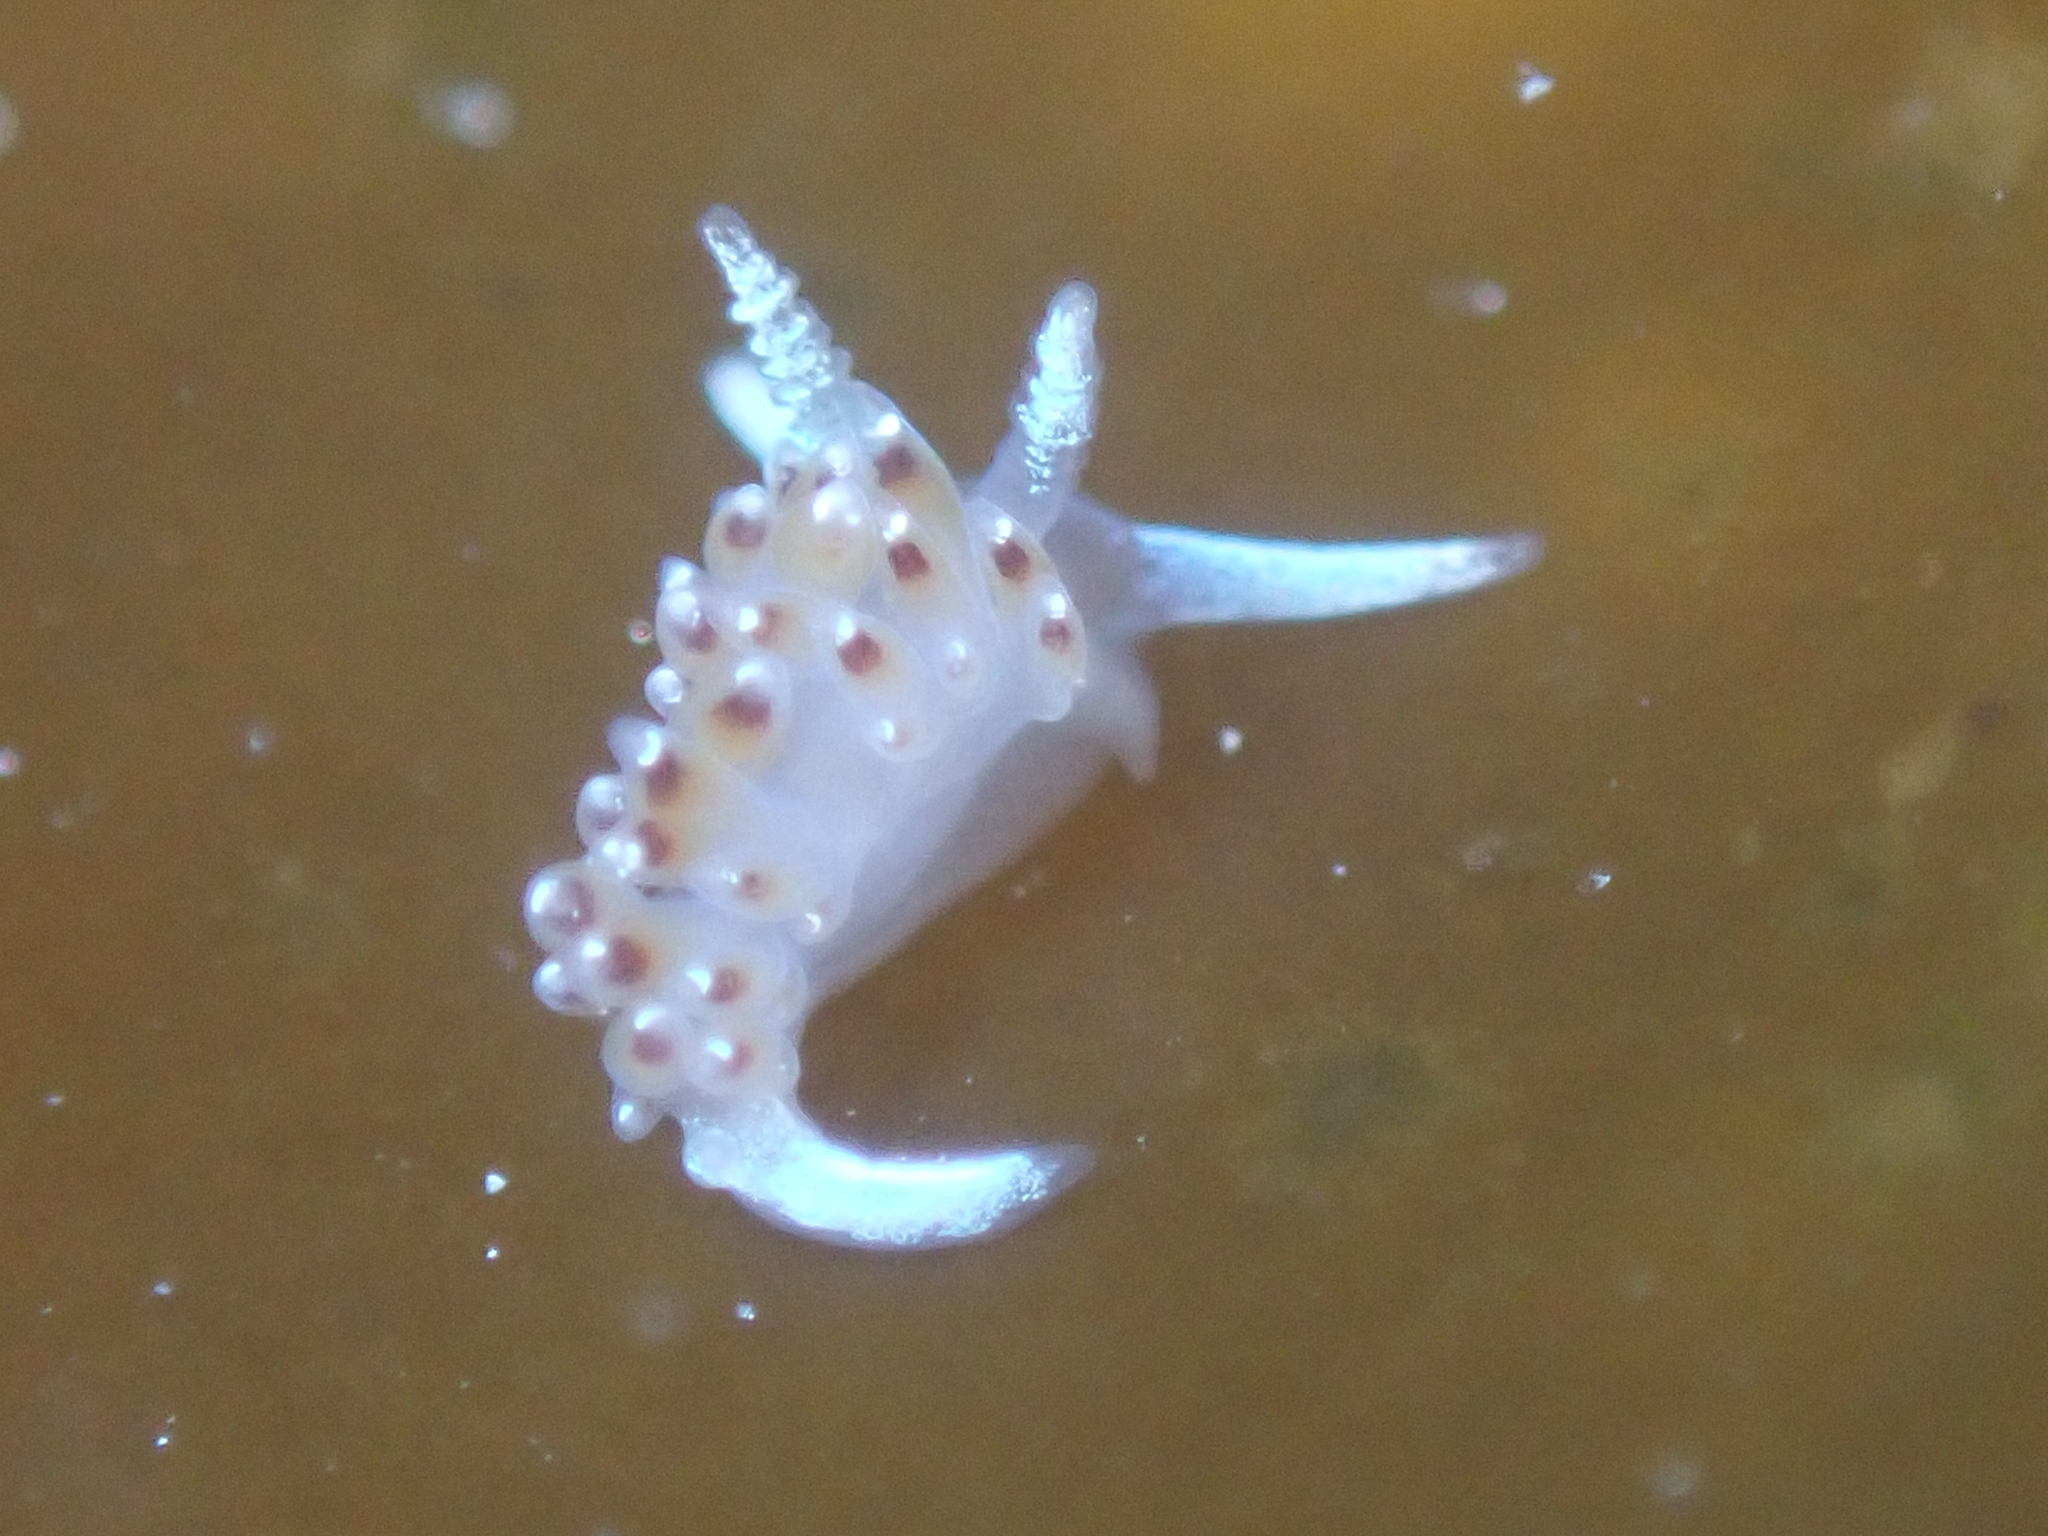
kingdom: Animalia
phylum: Mollusca
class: Gastropoda
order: Nudibranchia
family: Apataidae
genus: Apata
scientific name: Apata pricei
